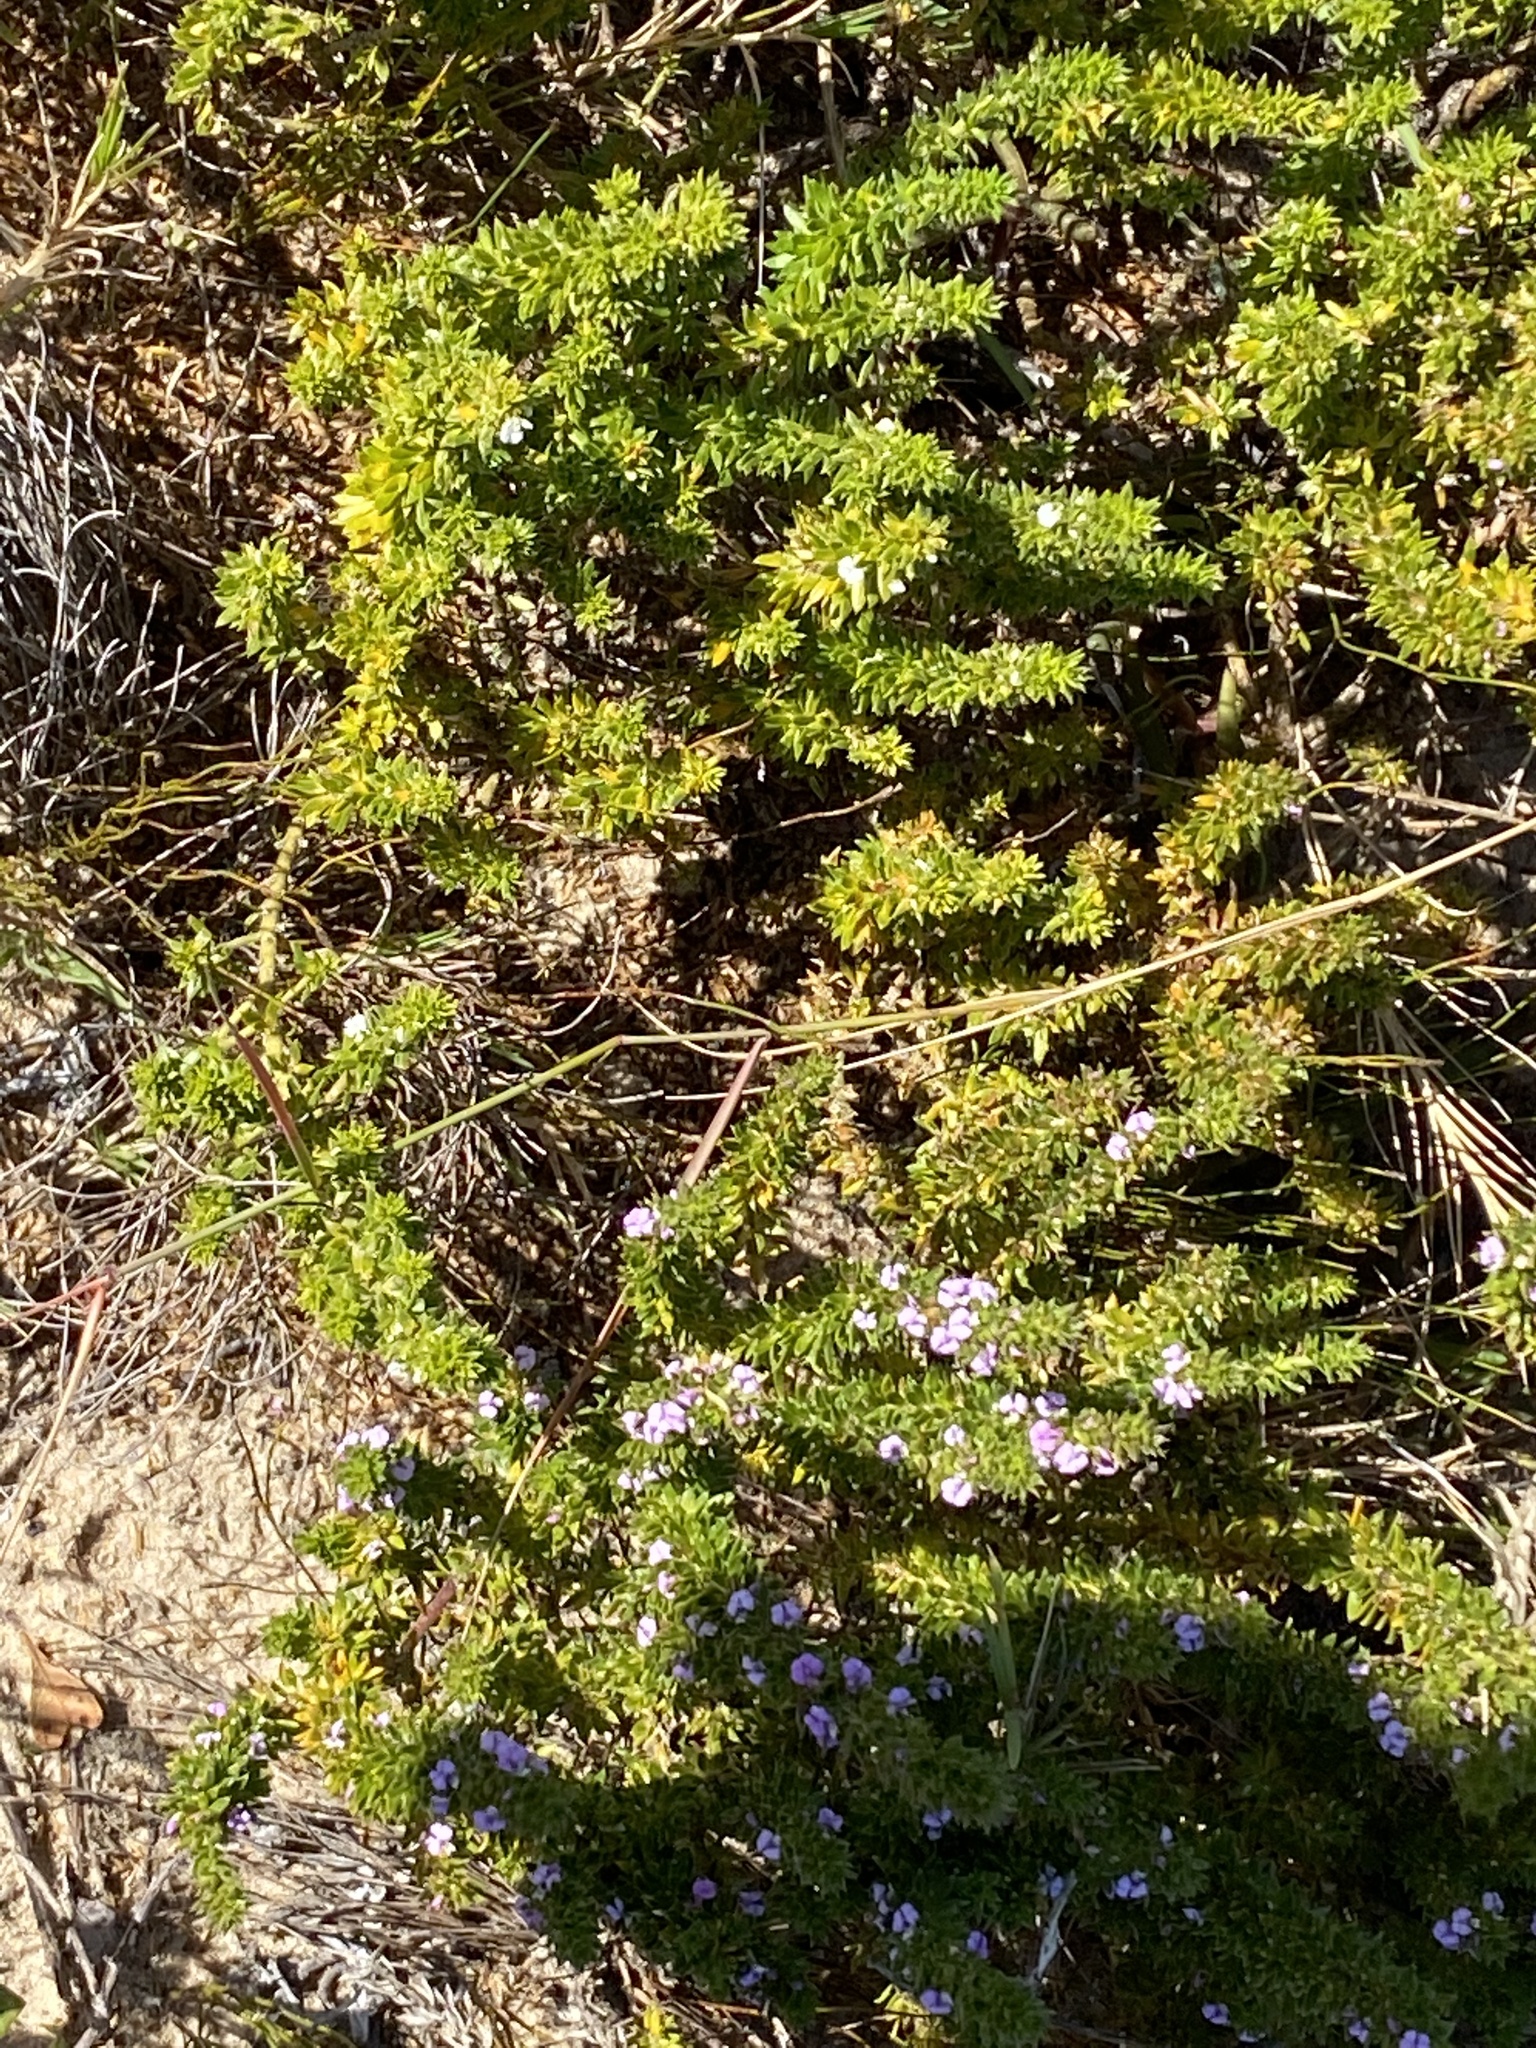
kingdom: Plantae
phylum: Tracheophyta
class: Magnoliopsida
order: Fabales
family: Polygalaceae
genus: Muraltia
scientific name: Muraltia satureioides
